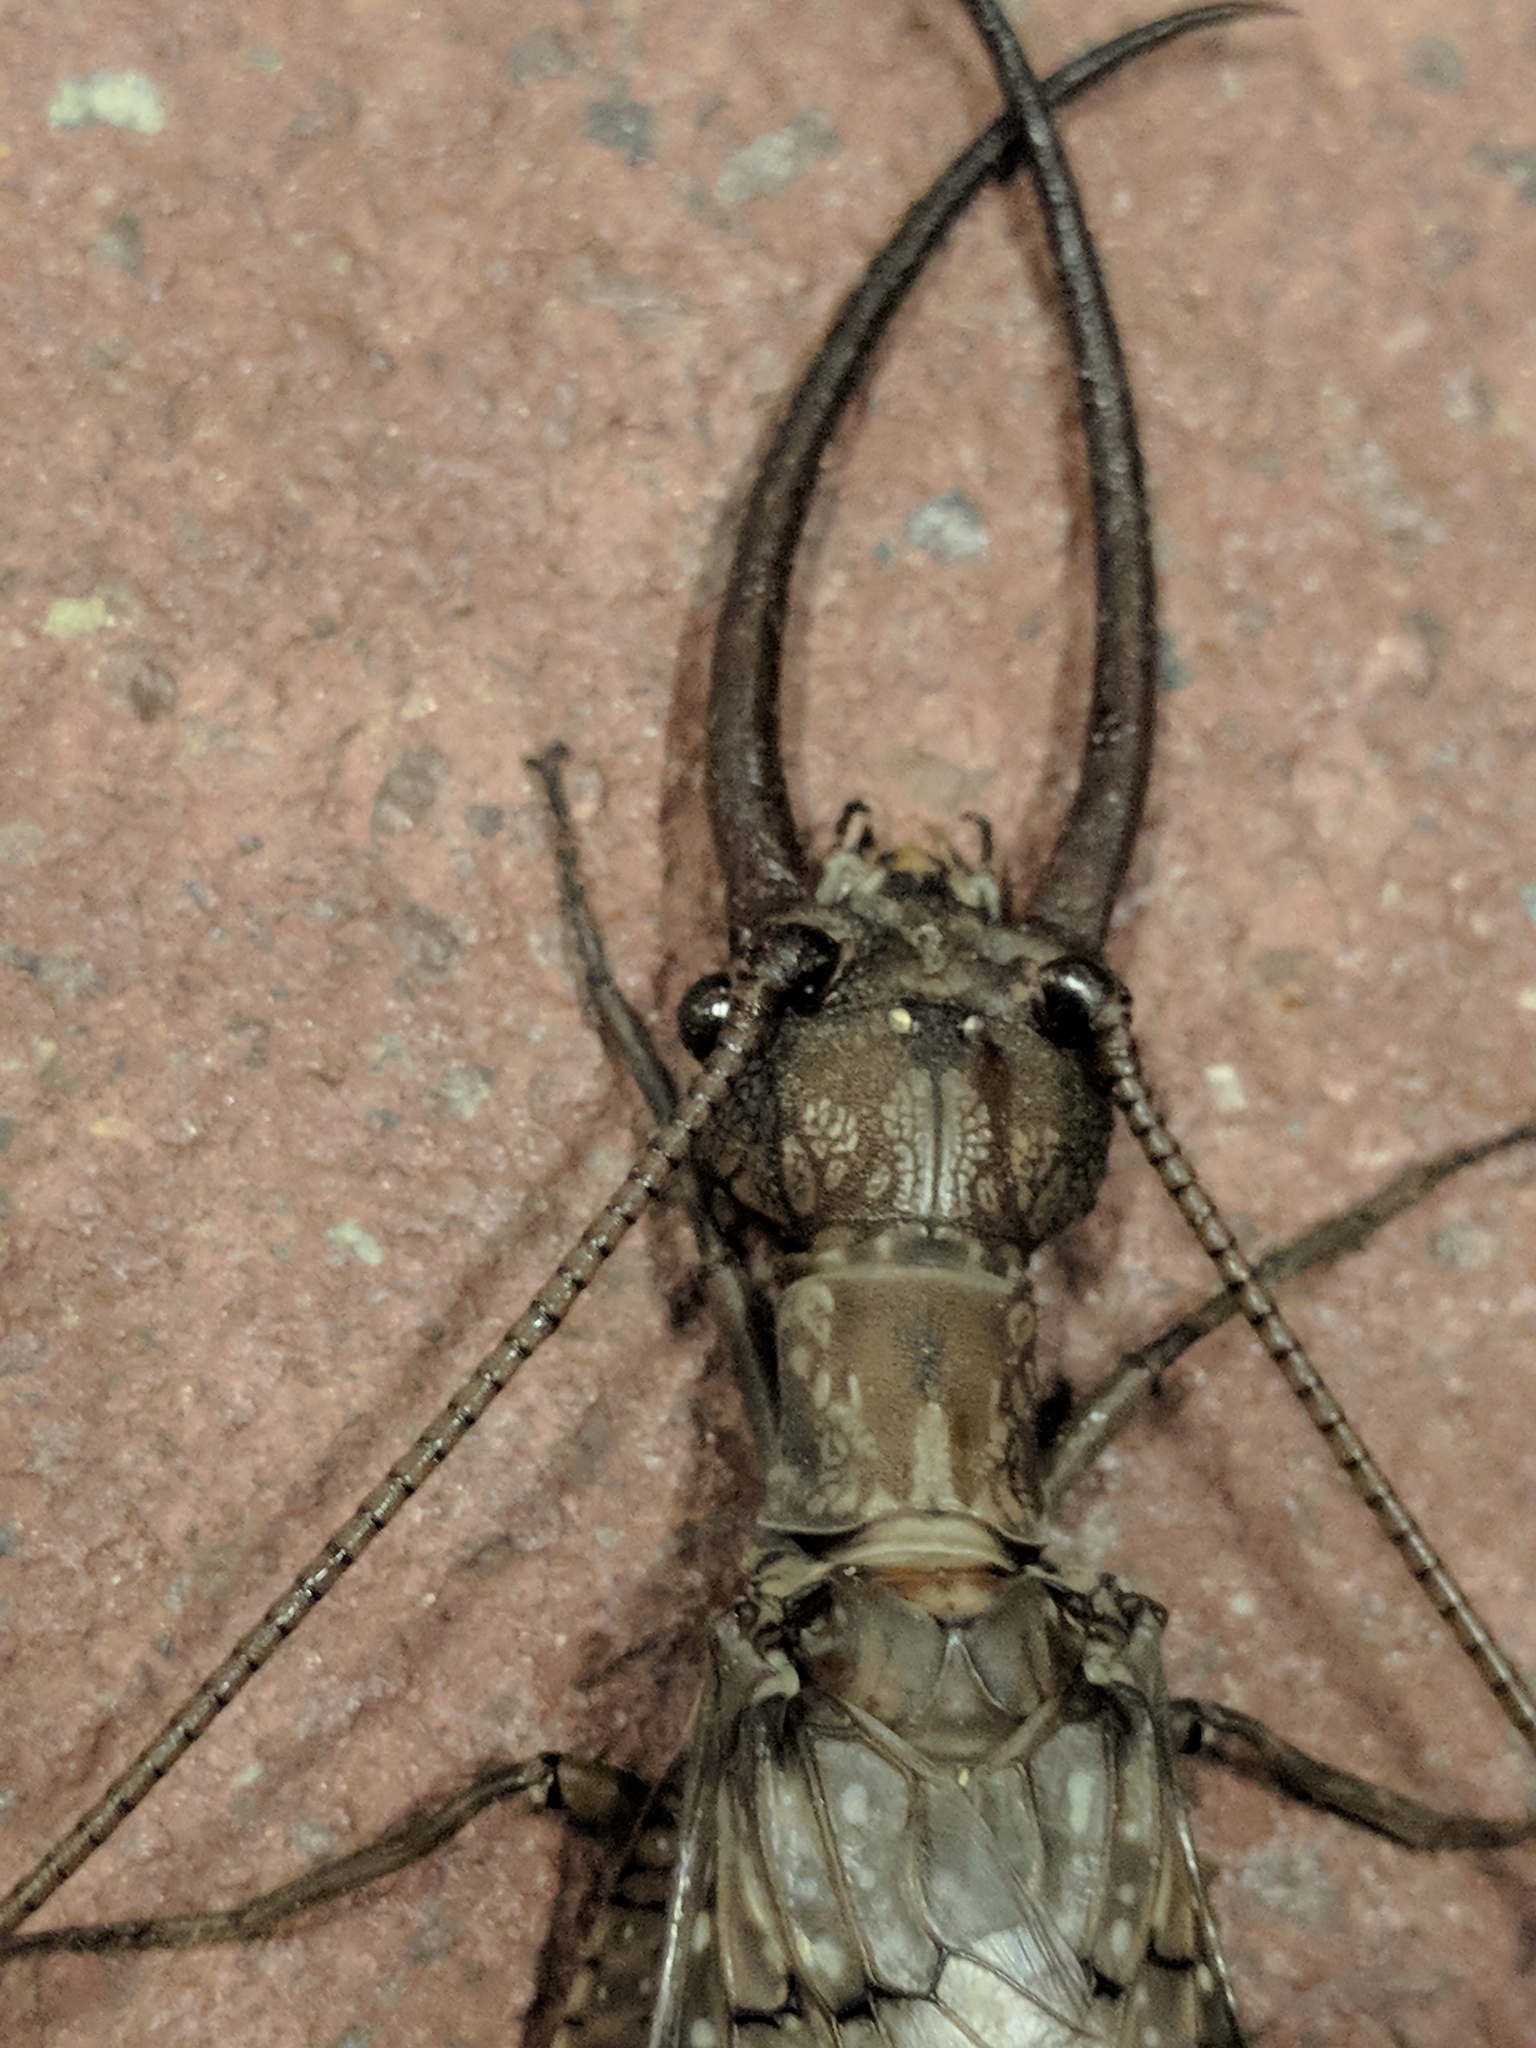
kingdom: Animalia
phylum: Arthropoda
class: Insecta
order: Megaloptera
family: Corydalidae
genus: Corydalus
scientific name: Corydalus cornutus
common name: Dobsonfly
